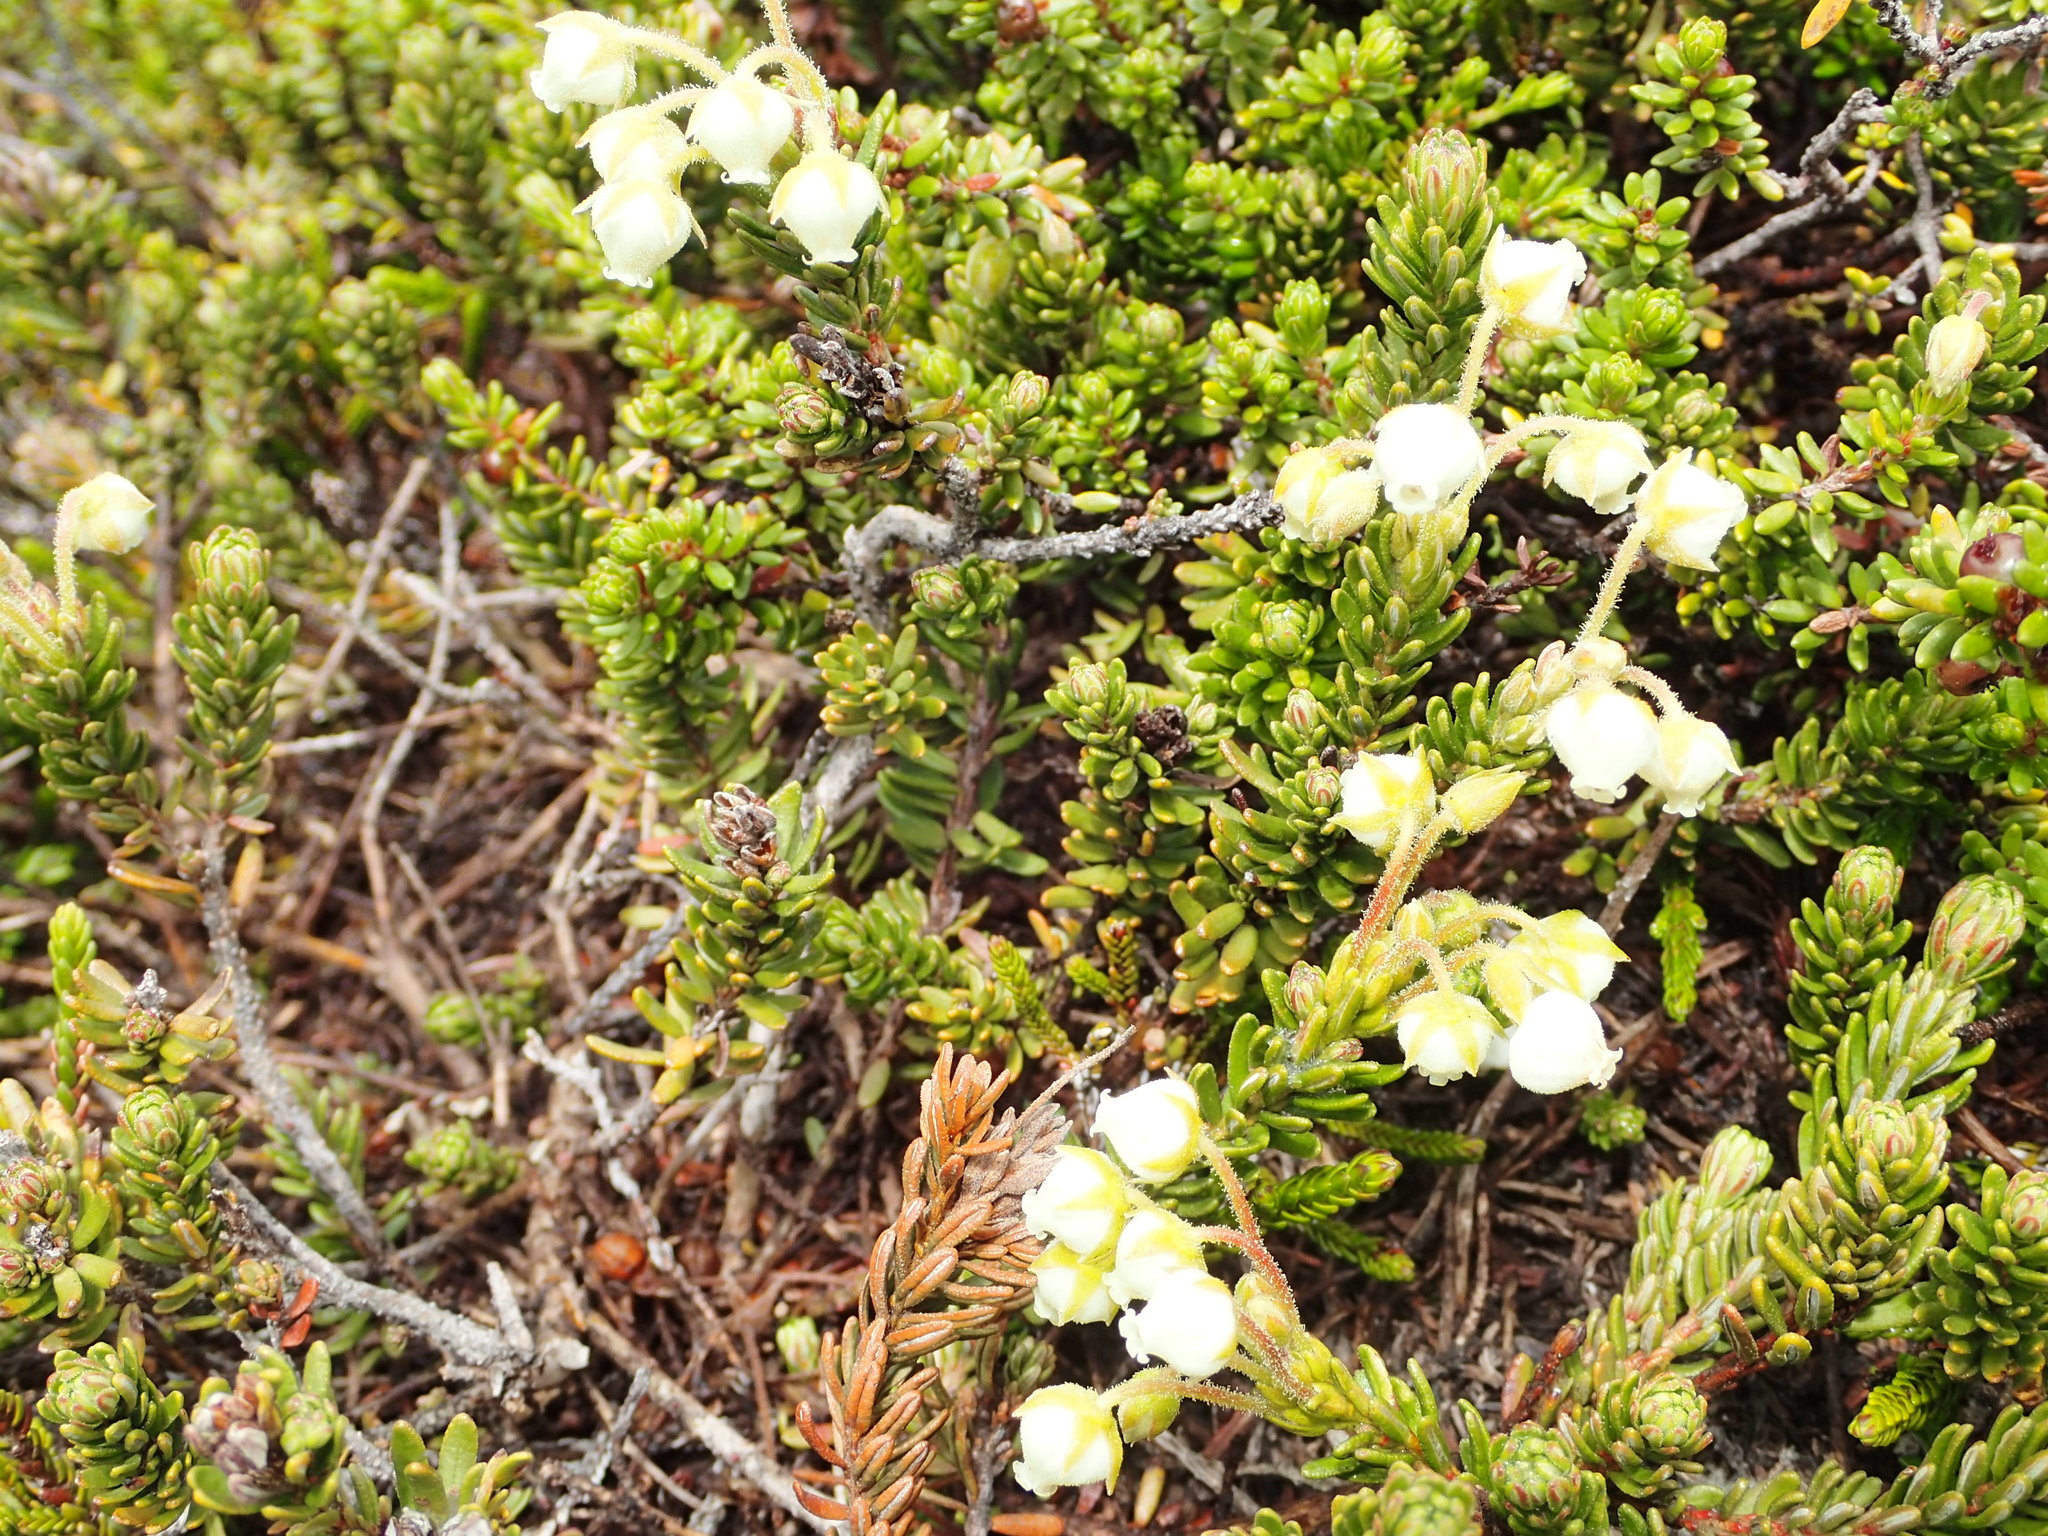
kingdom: Plantae
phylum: Tracheophyta
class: Magnoliopsida
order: Ericales
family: Ericaceae
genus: Phyllodoce
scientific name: Phyllodoce glanduliflora
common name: Cream mountain heather
